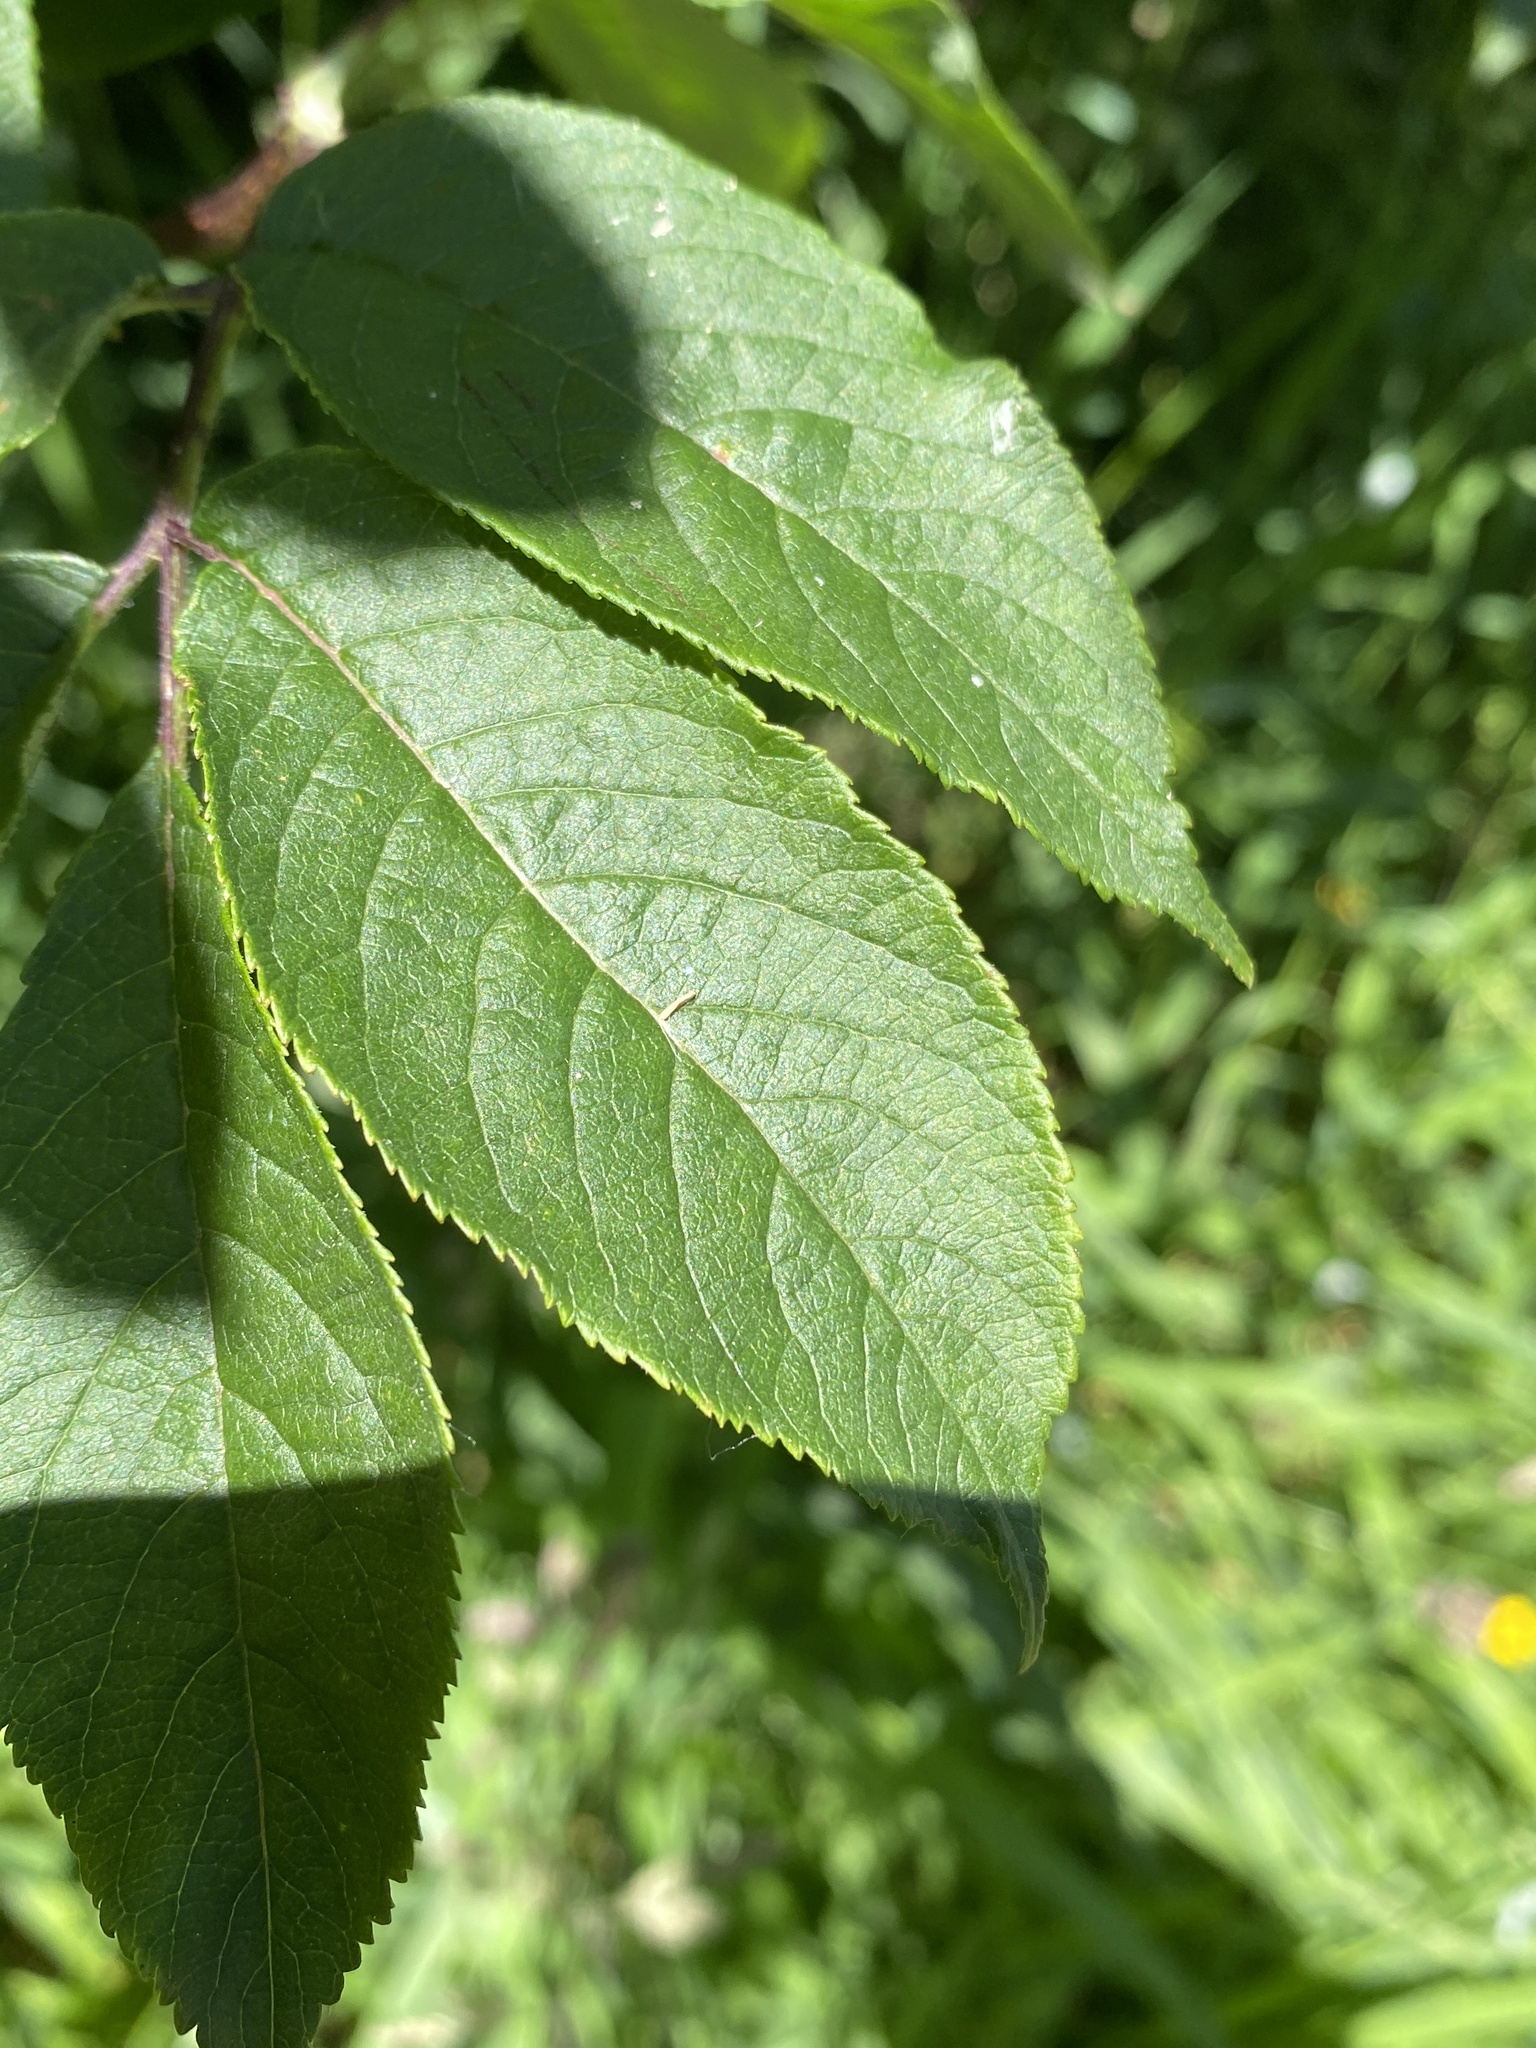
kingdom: Plantae
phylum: Tracheophyta
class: Magnoliopsida
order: Dipsacales
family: Viburnaceae
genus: Sambucus
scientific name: Sambucus racemosa
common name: Red-berried elder
